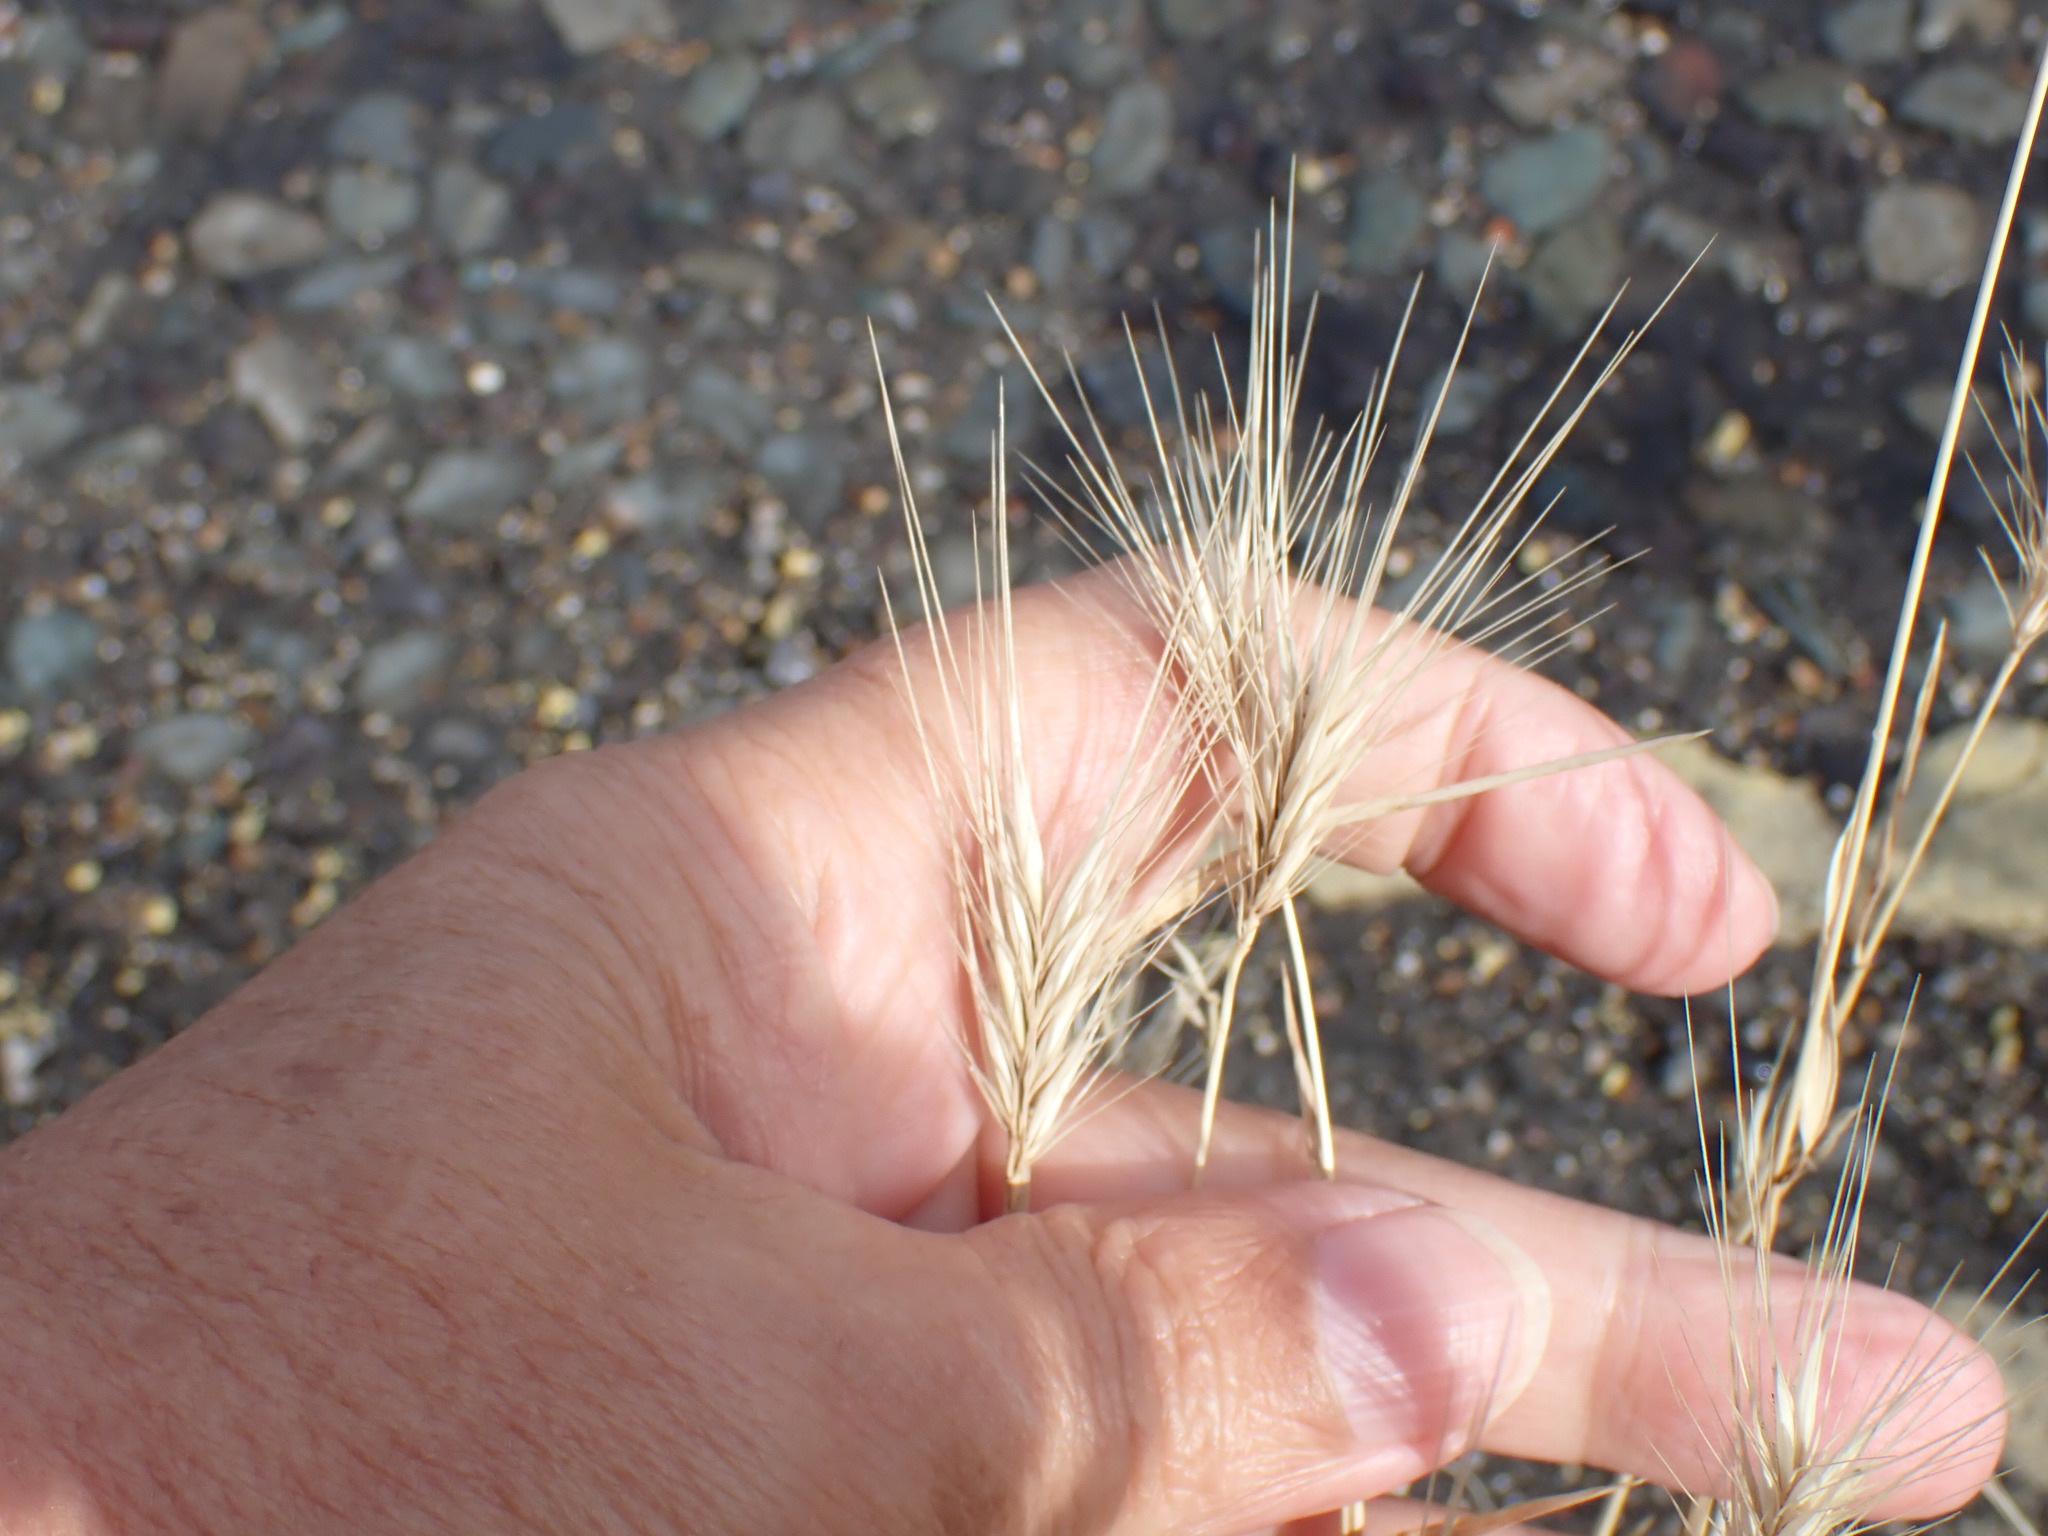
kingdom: Plantae
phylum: Tracheophyta
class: Liliopsida
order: Poales
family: Poaceae
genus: Hordeum
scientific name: Hordeum murinum
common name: Wall barley
